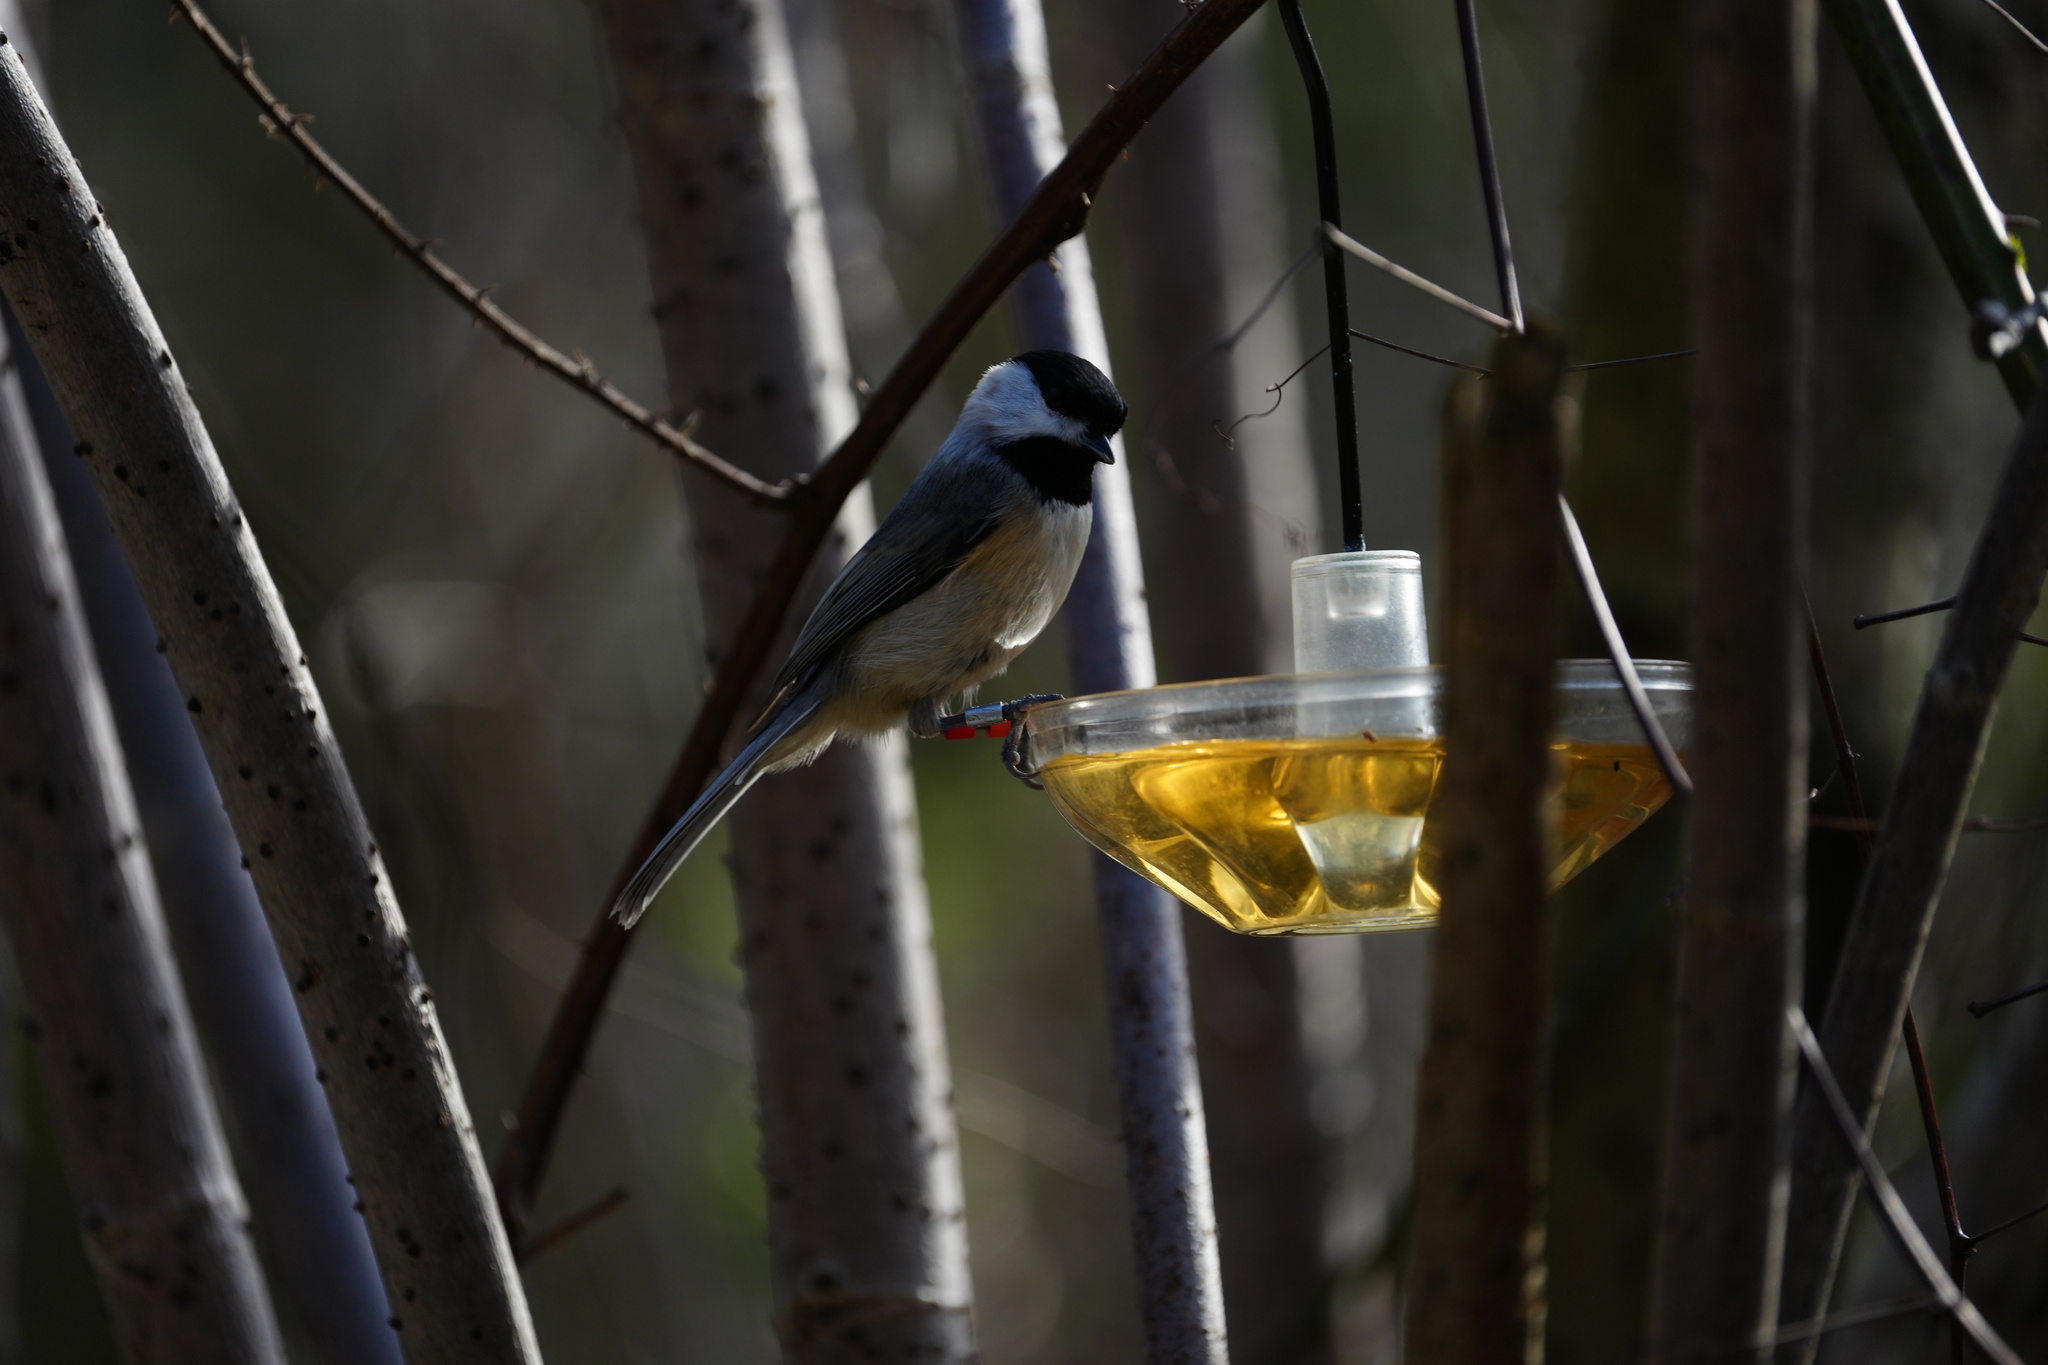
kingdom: Animalia
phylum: Chordata
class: Aves
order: Passeriformes
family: Paridae
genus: Poecile
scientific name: Poecile carolinensis
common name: Carolina chickadee
